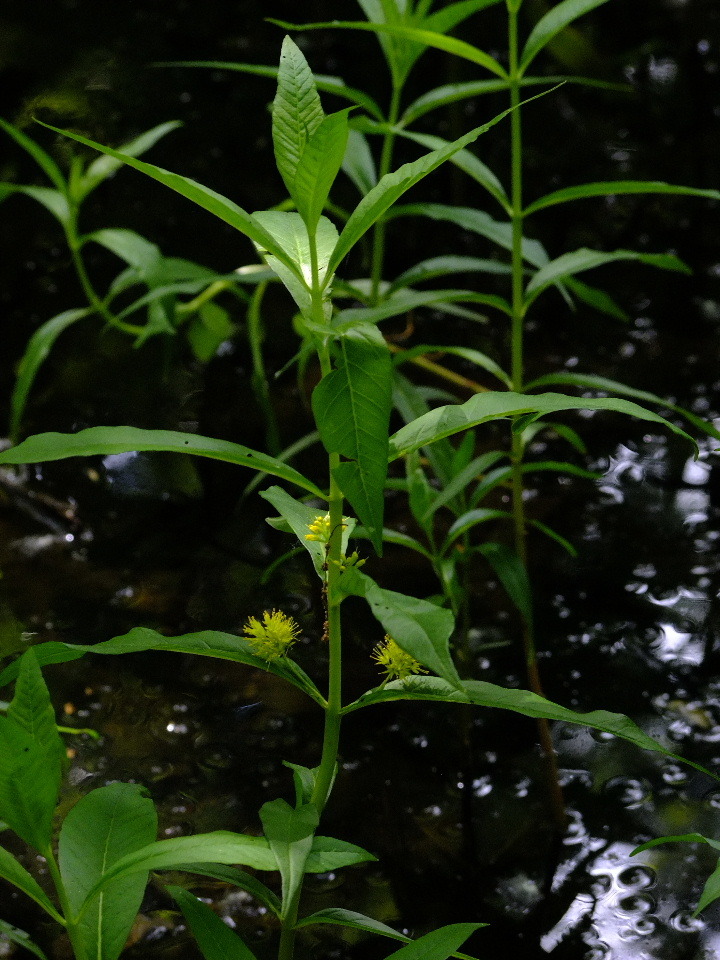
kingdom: Plantae
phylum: Tracheophyta
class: Magnoliopsida
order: Ericales
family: Primulaceae
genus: Lysimachia
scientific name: Lysimachia thyrsiflora
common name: Tufted loosestrife
